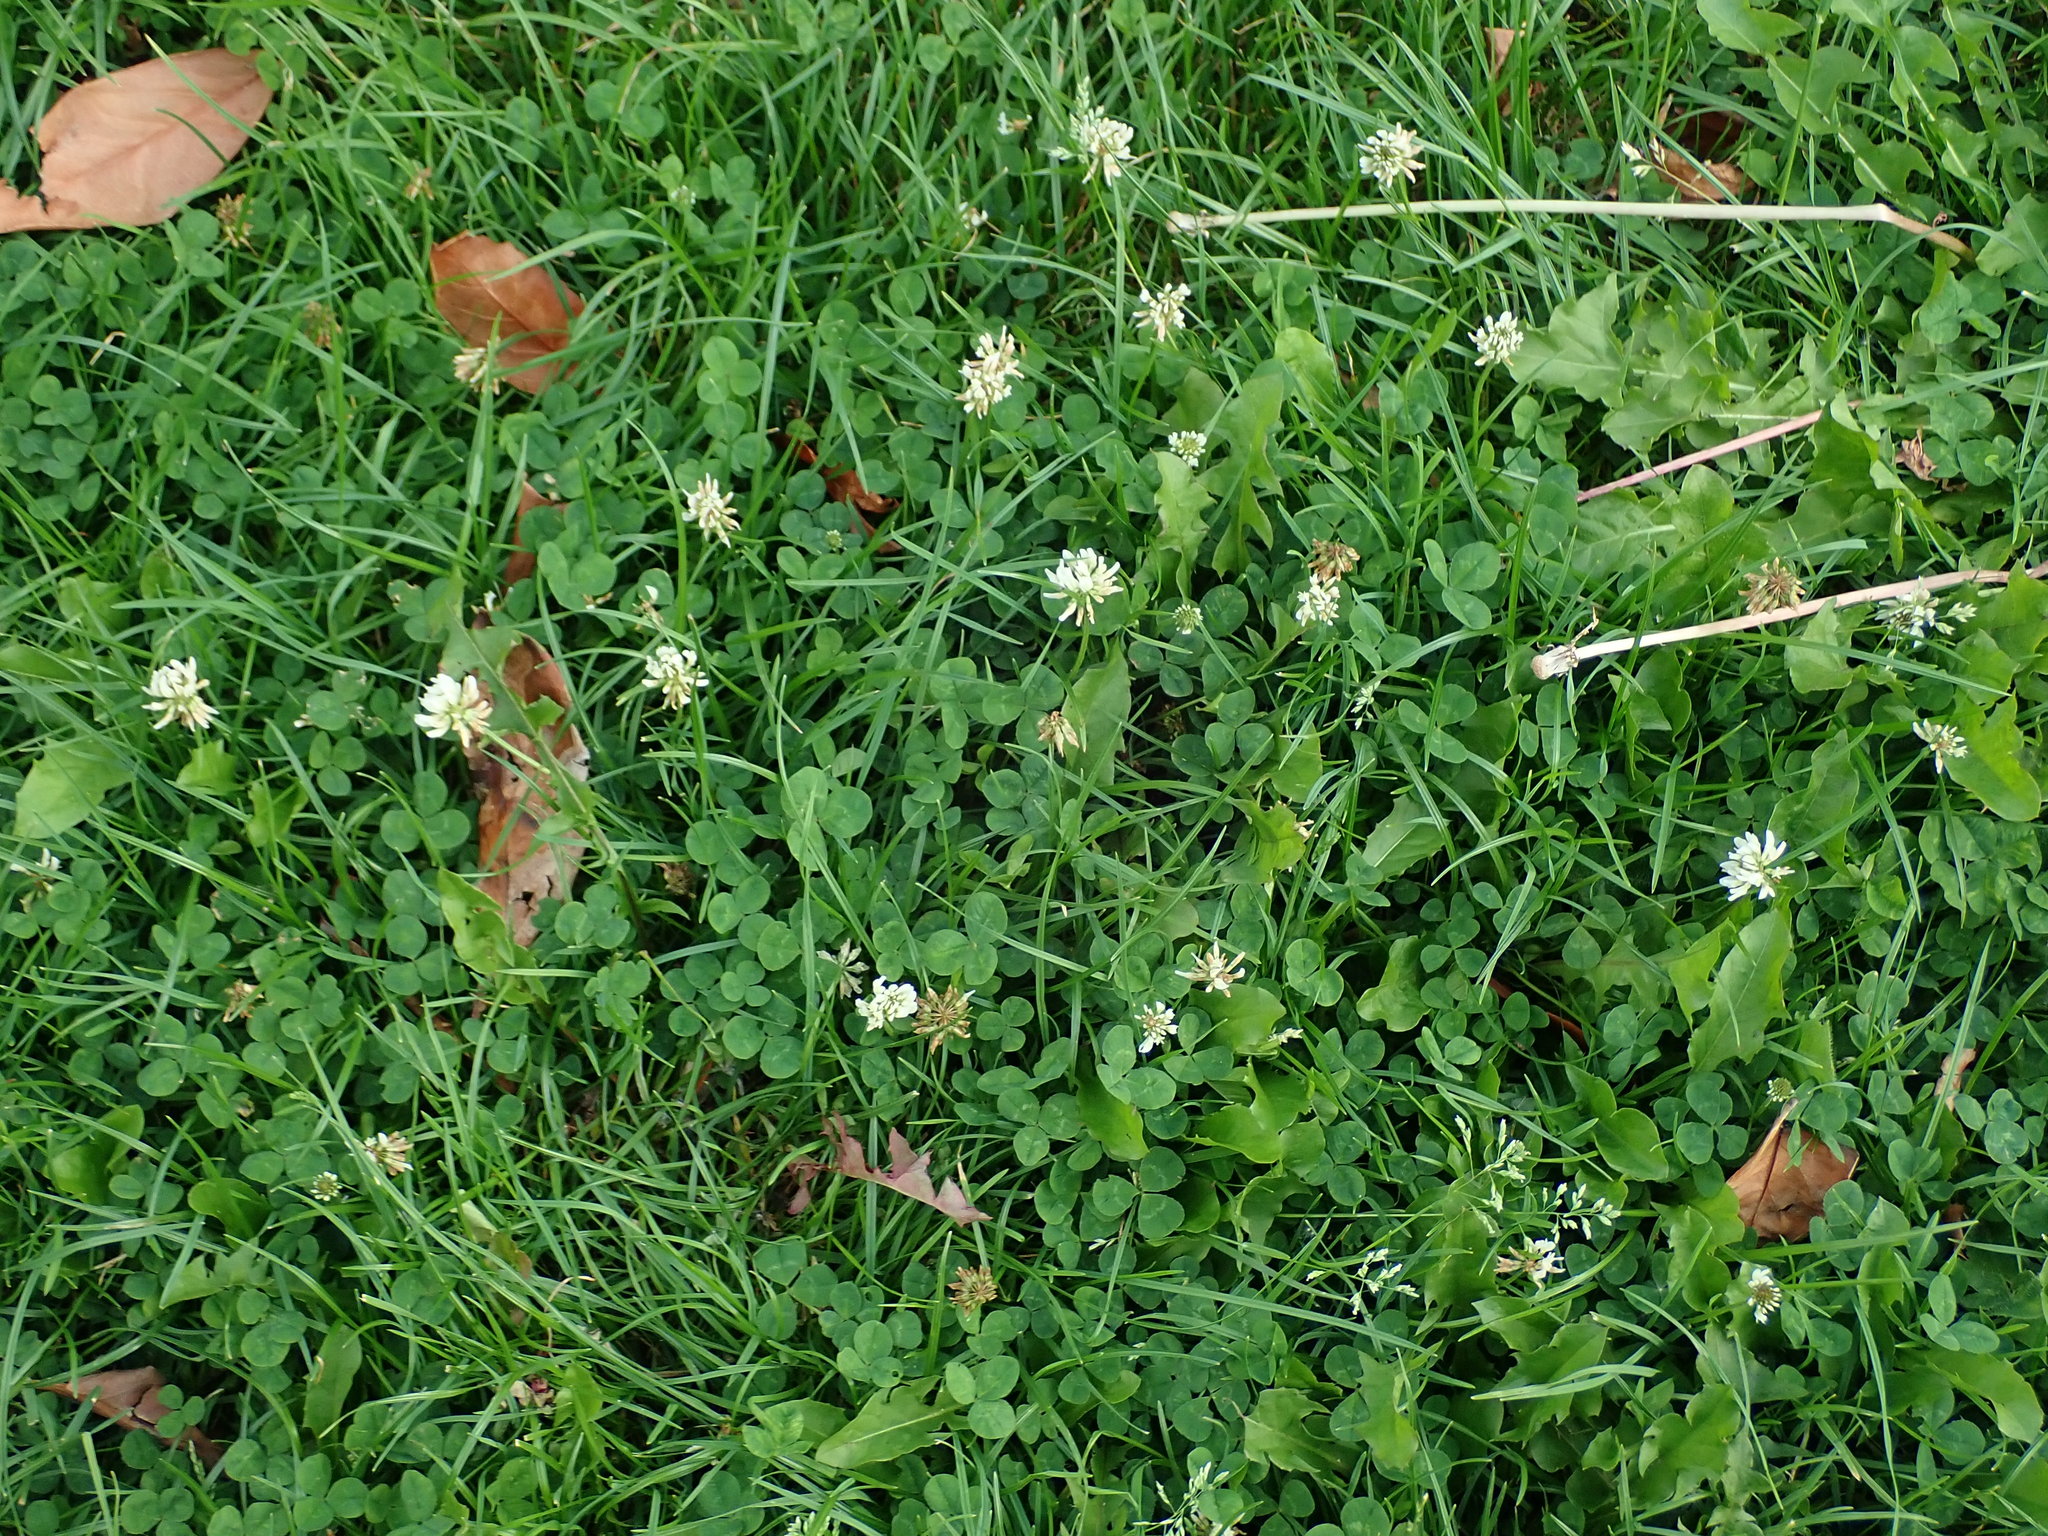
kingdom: Plantae
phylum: Tracheophyta
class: Magnoliopsida
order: Fabales
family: Fabaceae
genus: Trifolium
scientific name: Trifolium repens
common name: White clover
